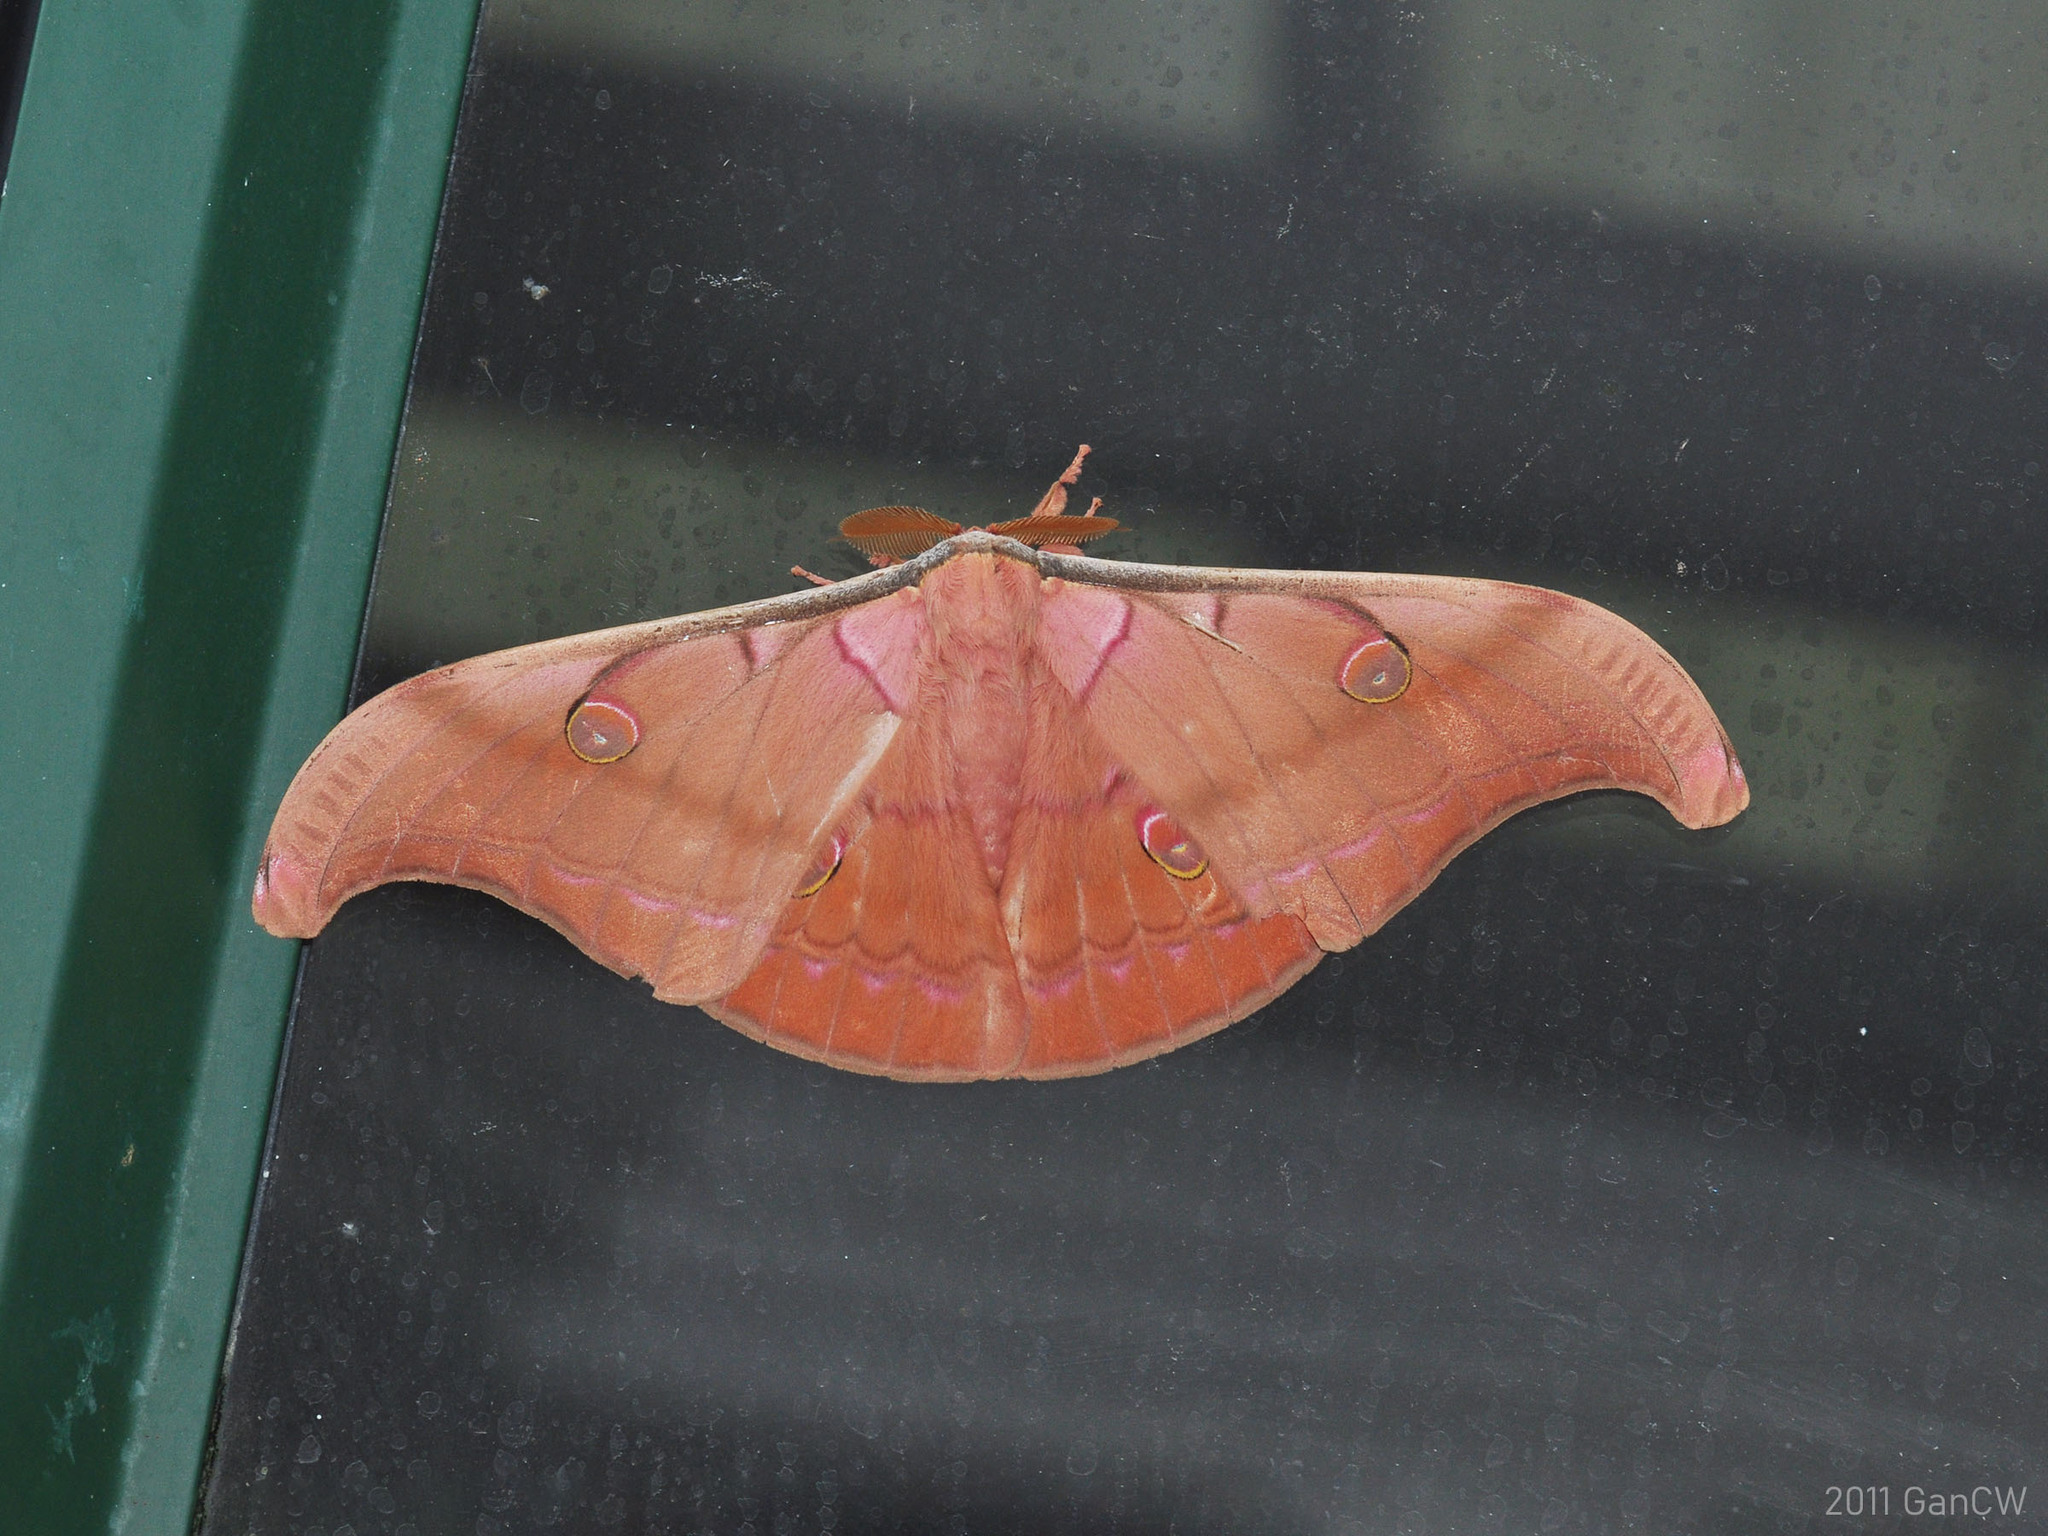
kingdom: Animalia
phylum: Arthropoda
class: Insecta
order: Lepidoptera
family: Saturniidae
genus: Antheraea
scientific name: Antheraea helferi
